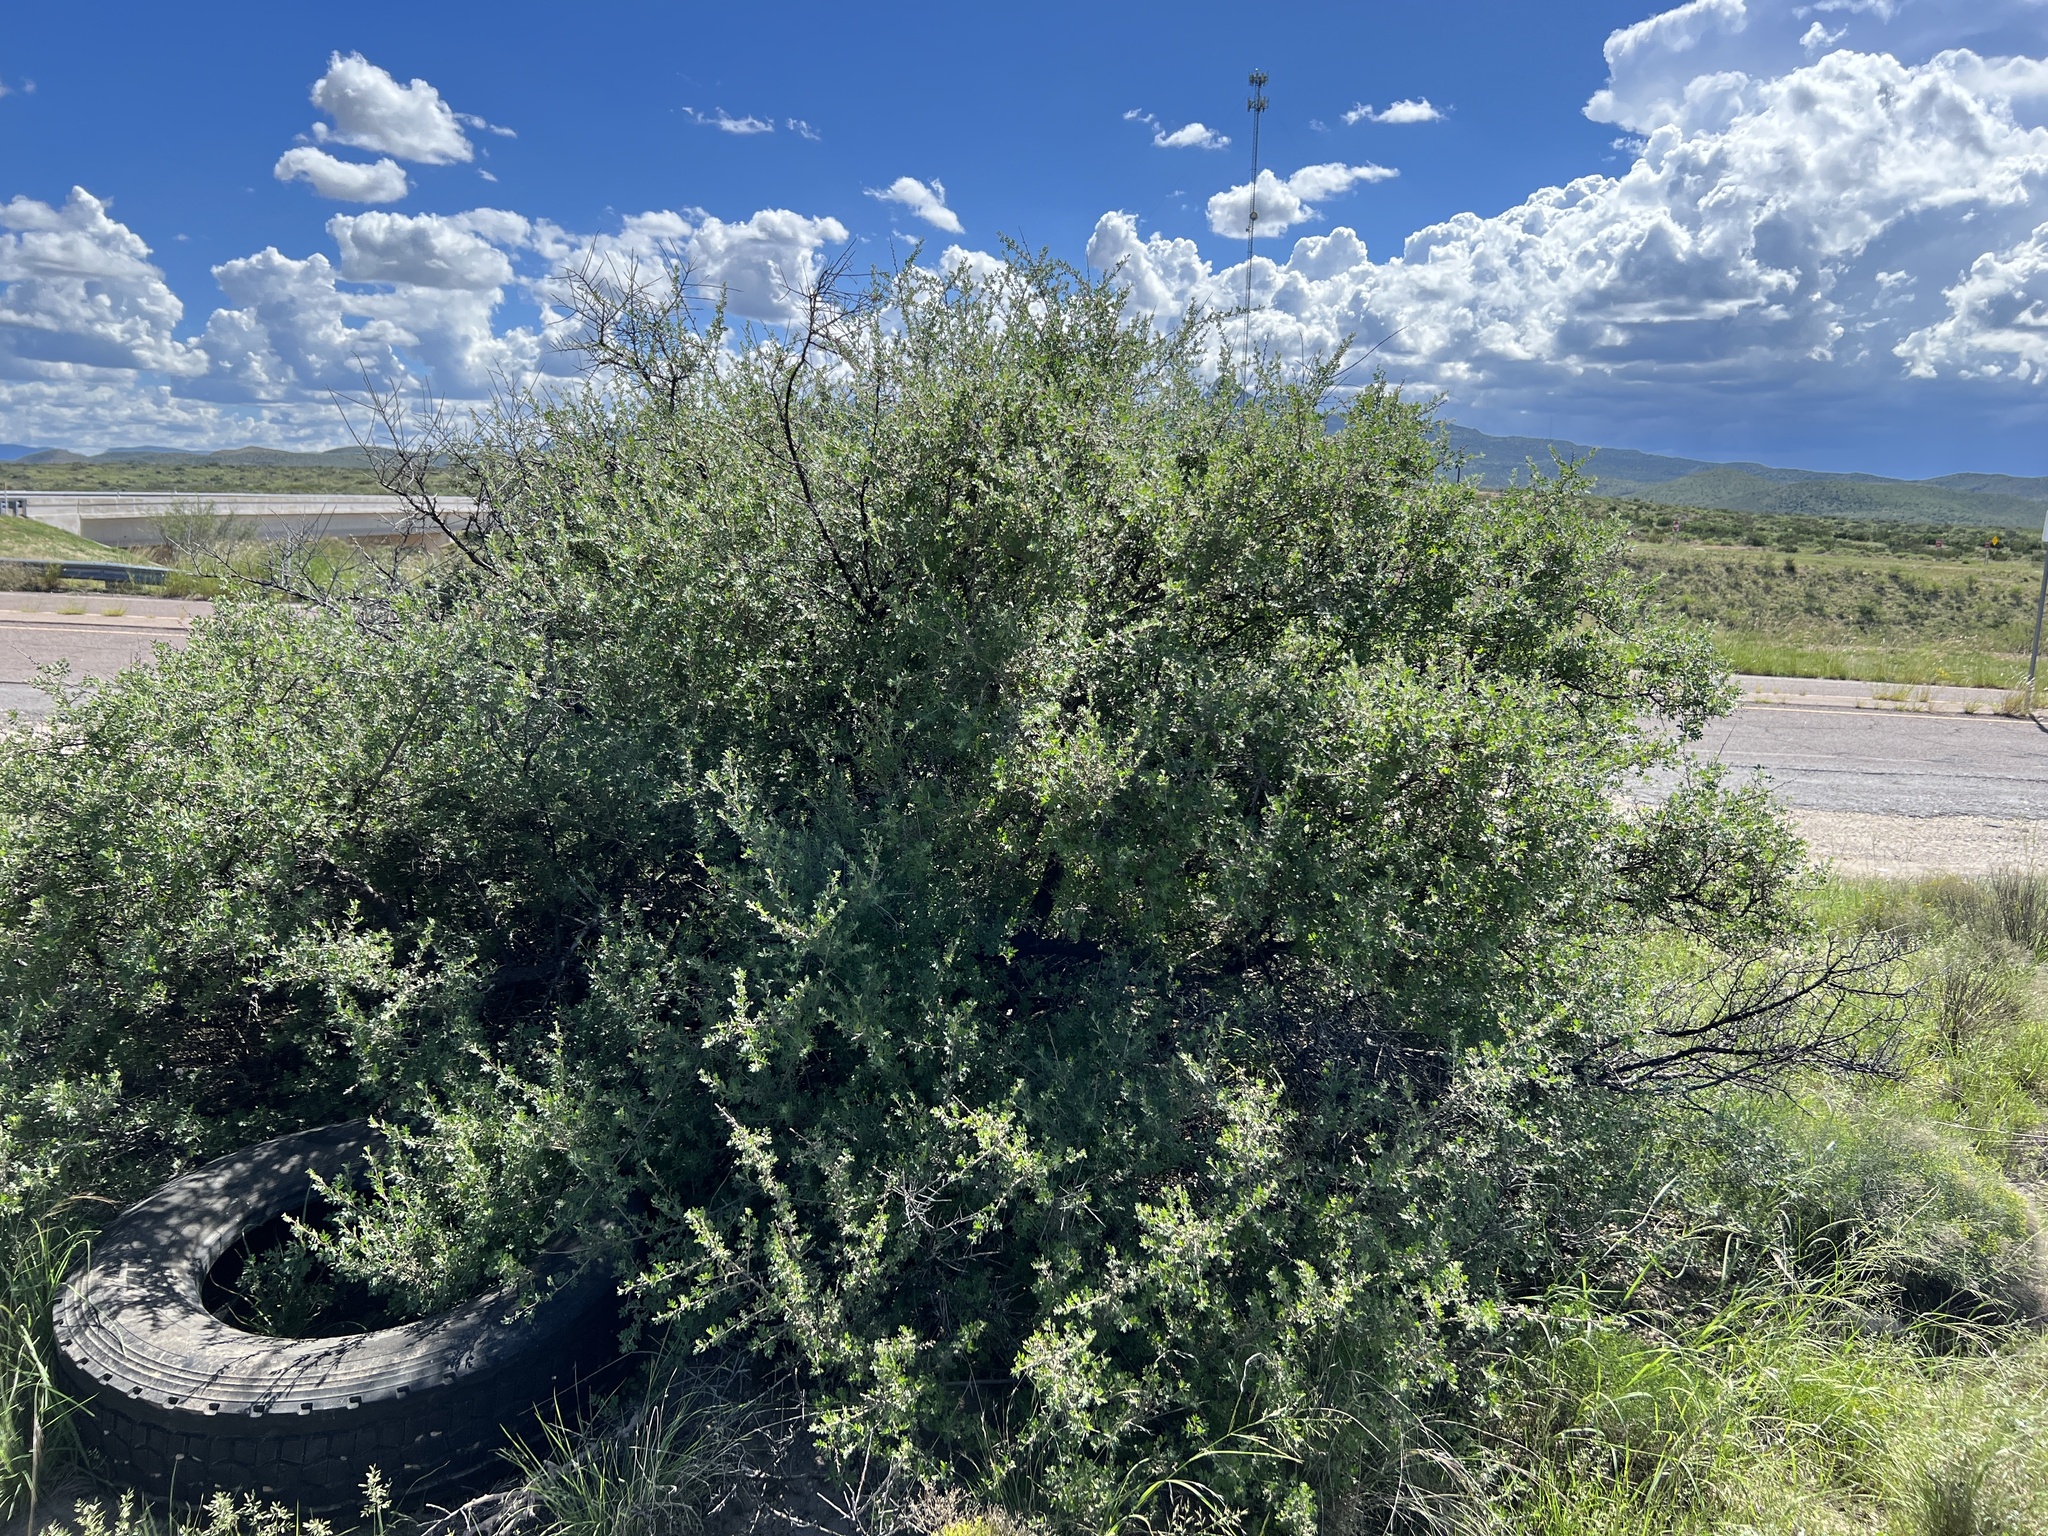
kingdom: Plantae
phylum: Tracheophyta
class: Magnoliopsida
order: Sapindales
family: Anacardiaceae
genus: Rhus
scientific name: Rhus microphylla
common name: Desert sumac
